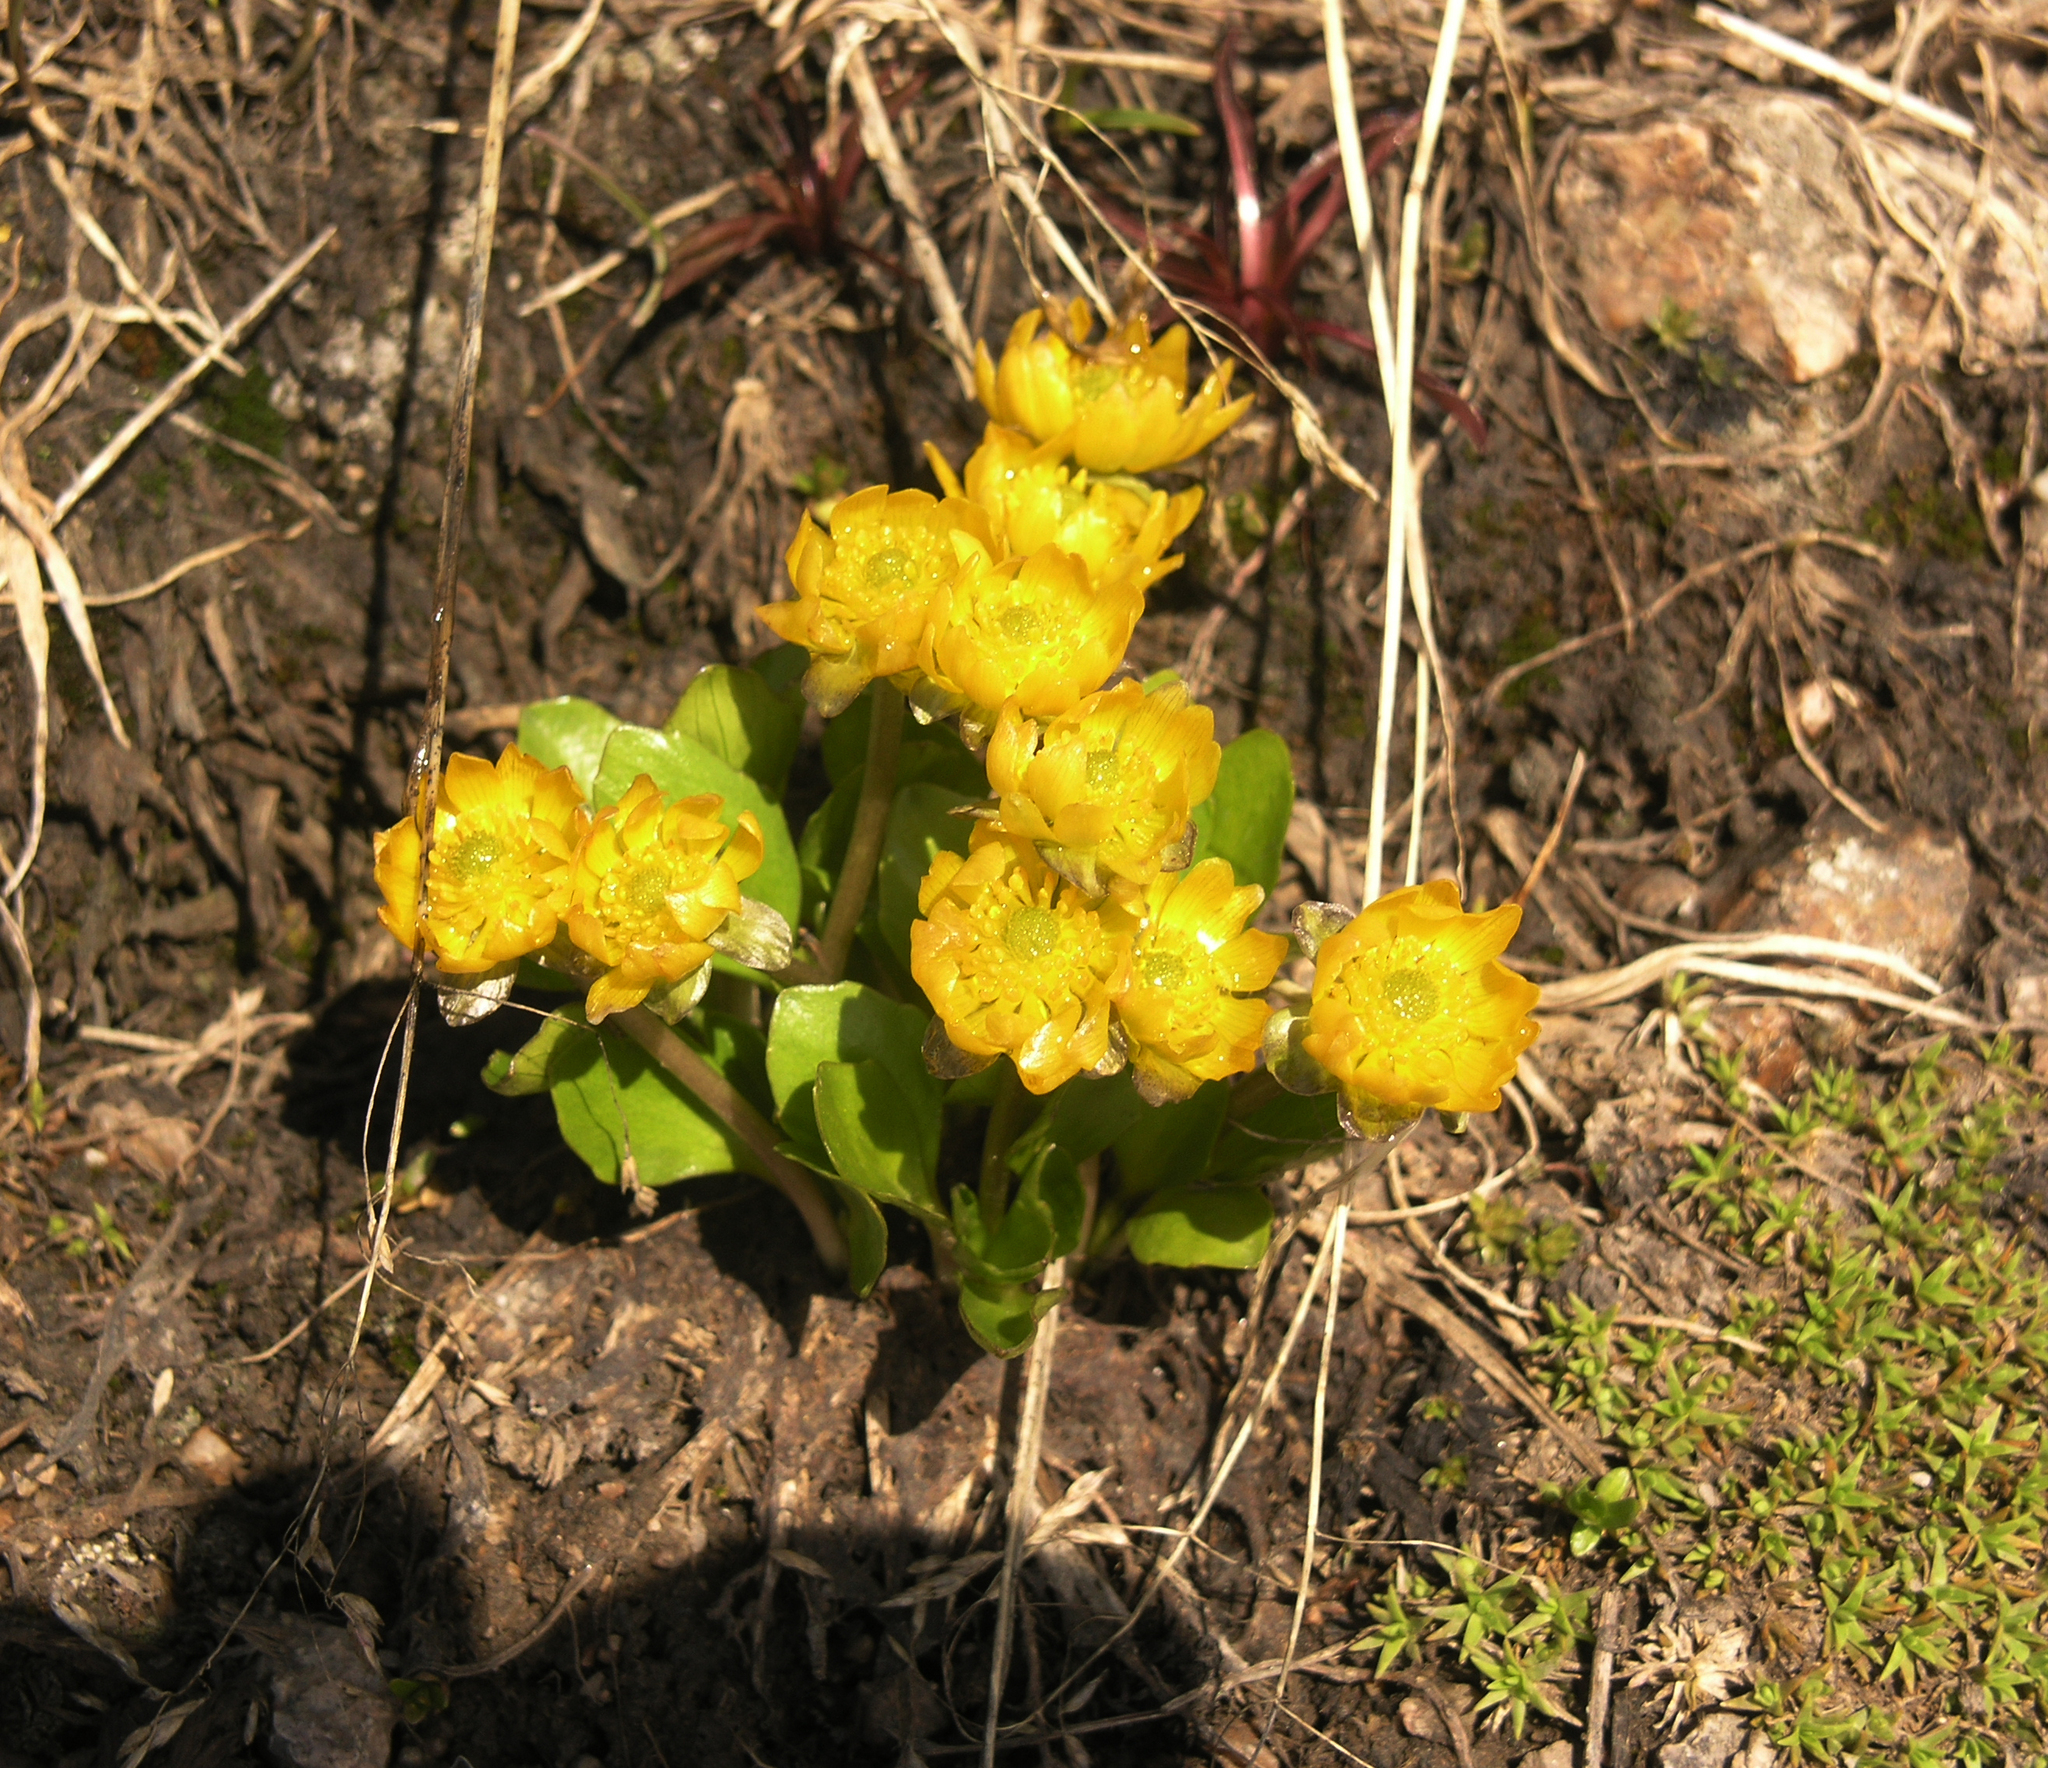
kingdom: Plantae
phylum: Tracheophyta
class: Magnoliopsida
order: Ranunculales
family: Ranunculaceae
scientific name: Ranunculaceae
